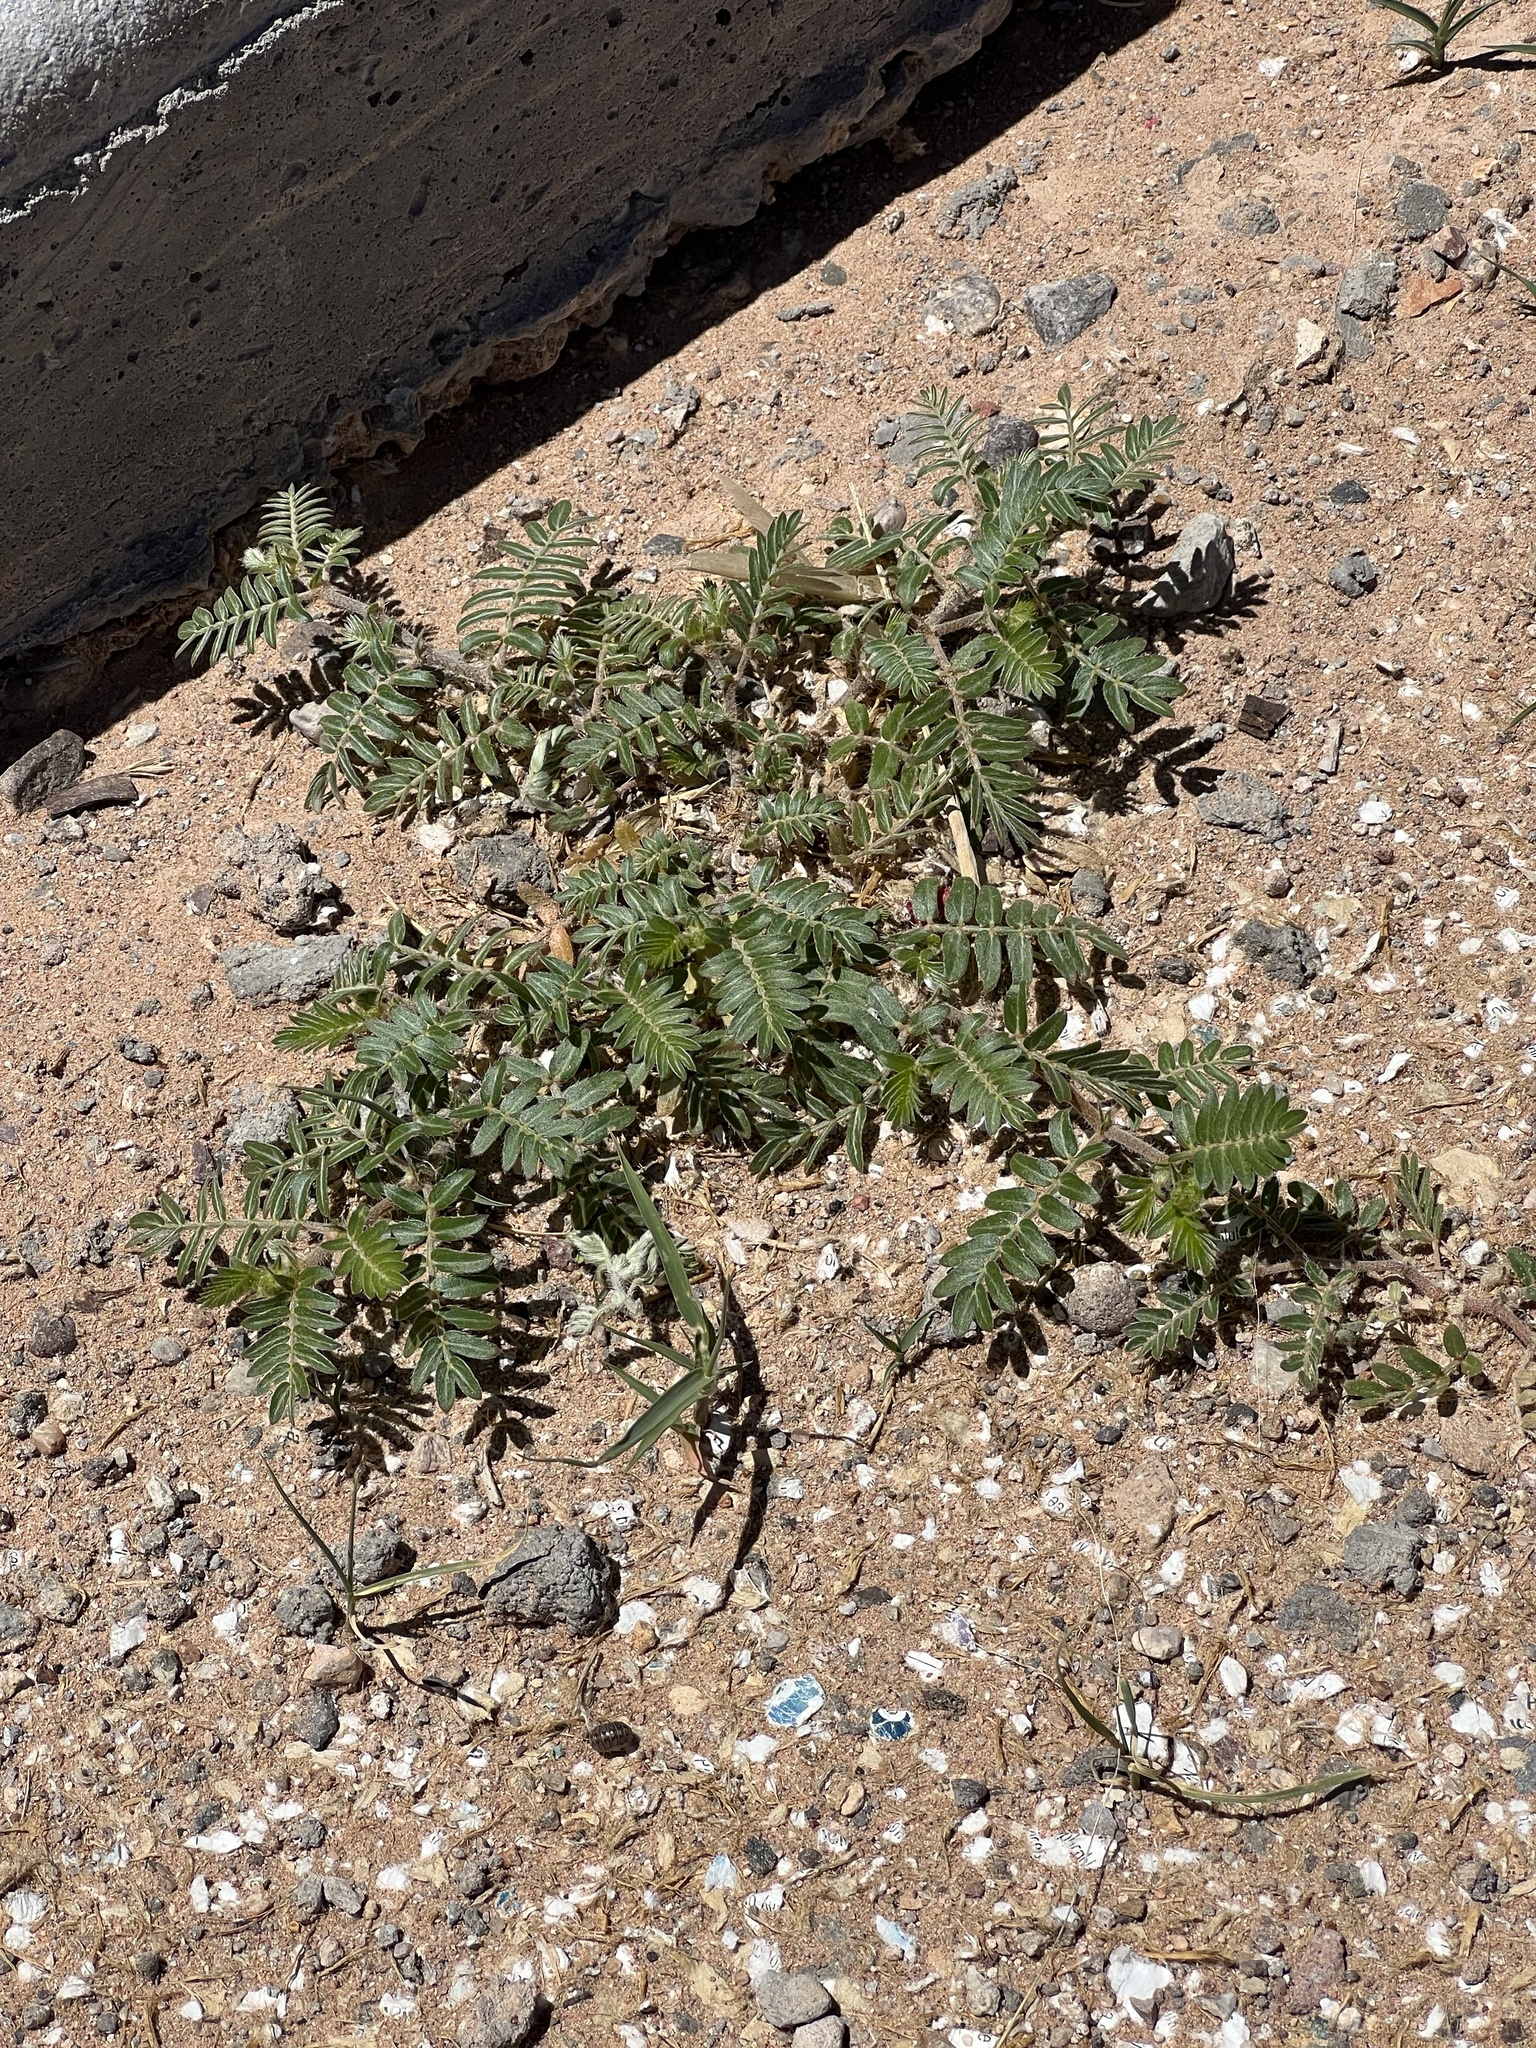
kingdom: Plantae
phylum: Tracheophyta
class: Magnoliopsida
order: Zygophyllales
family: Zygophyllaceae
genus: Tribulus
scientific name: Tribulus terrestris
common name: Puncturevine
